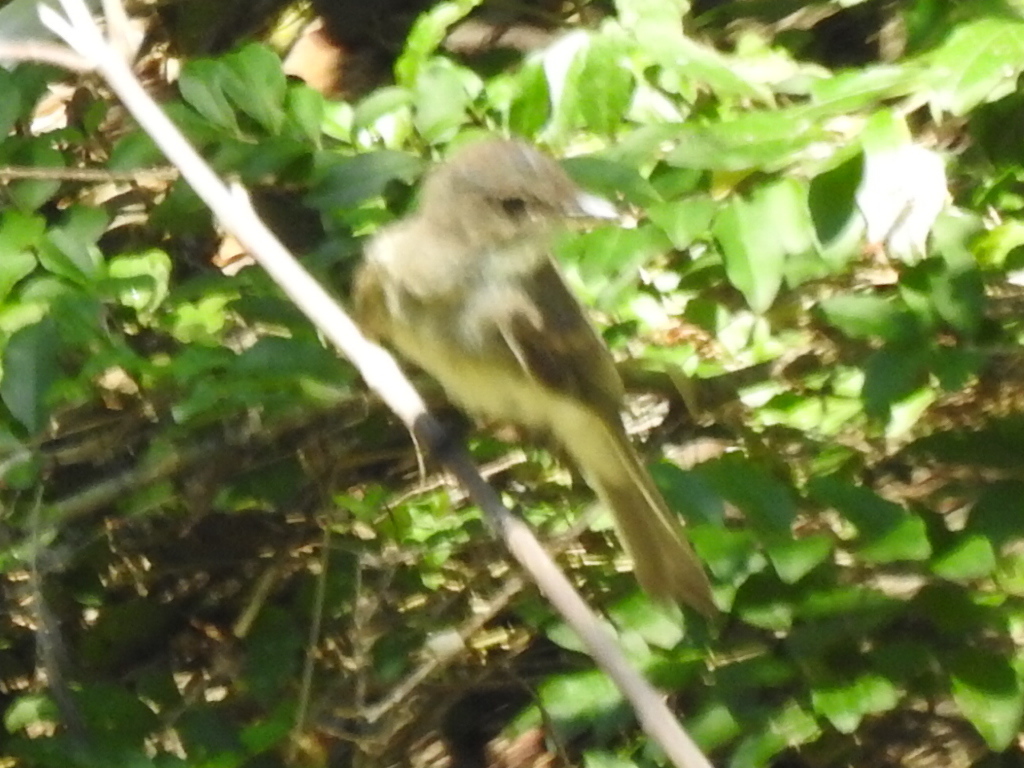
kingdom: Animalia
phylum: Chordata
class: Aves
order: Passeriformes
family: Tyrannidae
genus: Sayornis
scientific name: Sayornis phoebe
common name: Eastern phoebe
